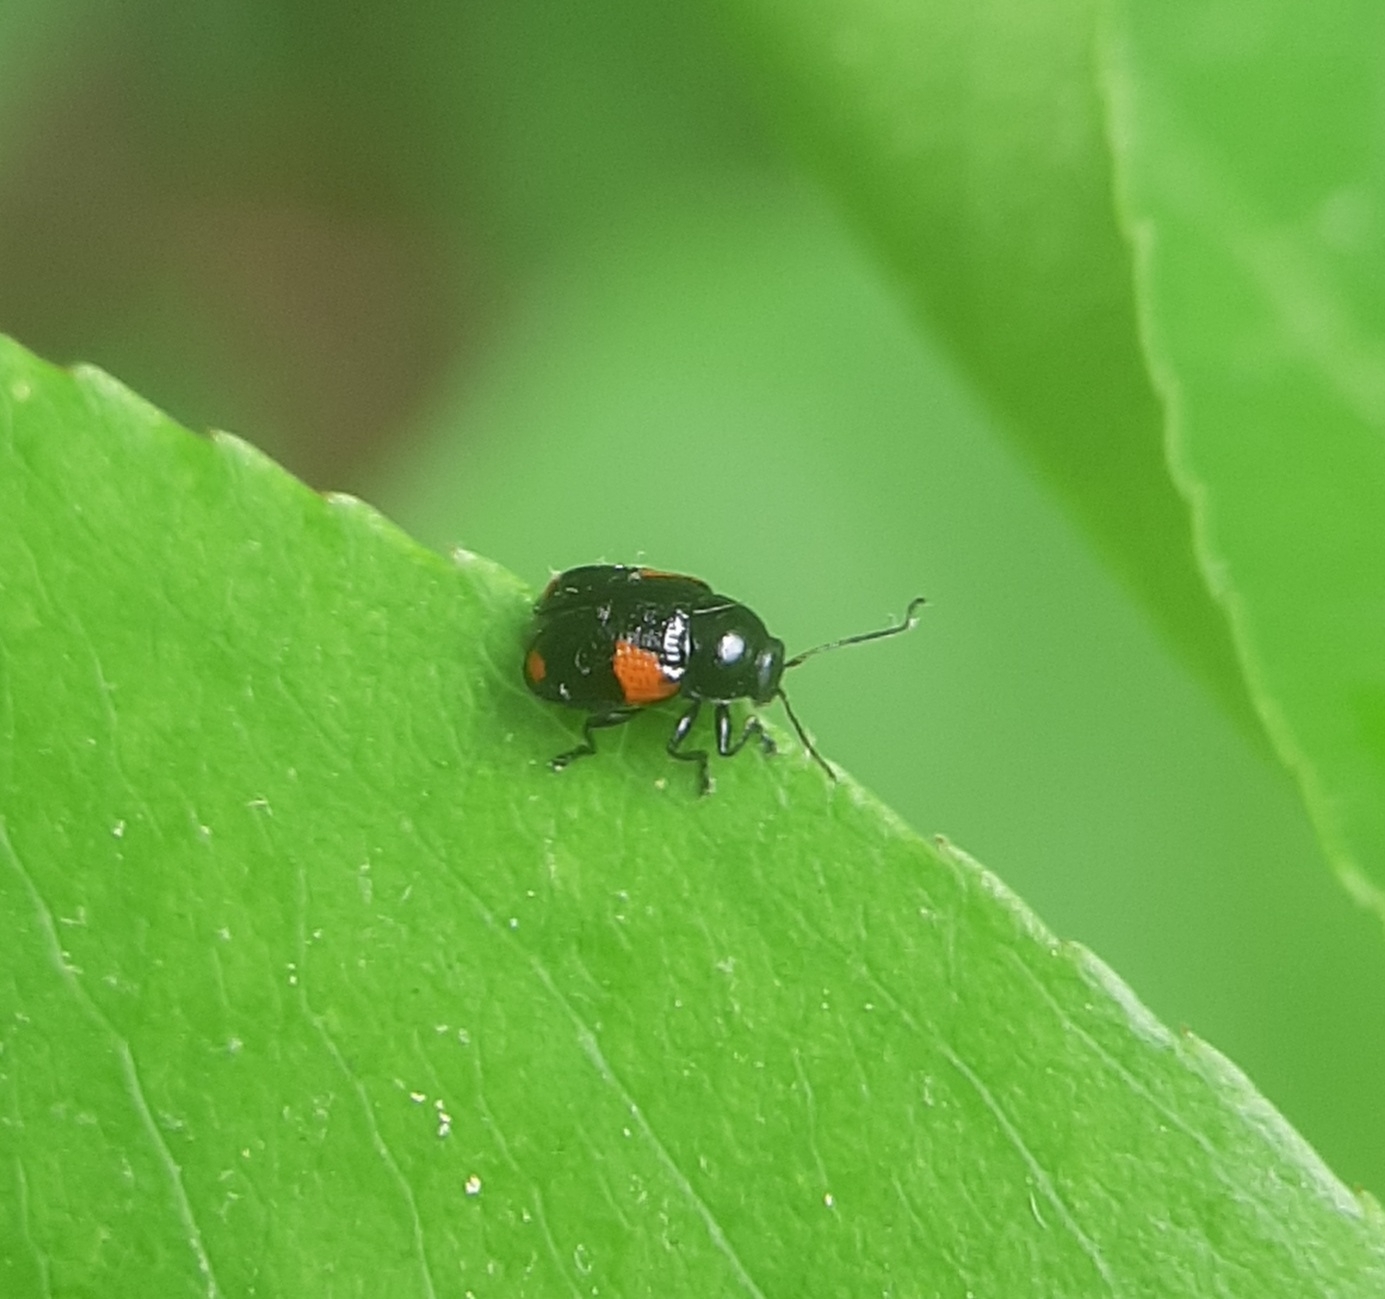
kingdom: Animalia
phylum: Arthropoda
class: Insecta
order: Coleoptera
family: Chrysomelidae
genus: Cryptocephalus
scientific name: Cryptocephalus quadruplex
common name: Black and red sumac leaf beetle
